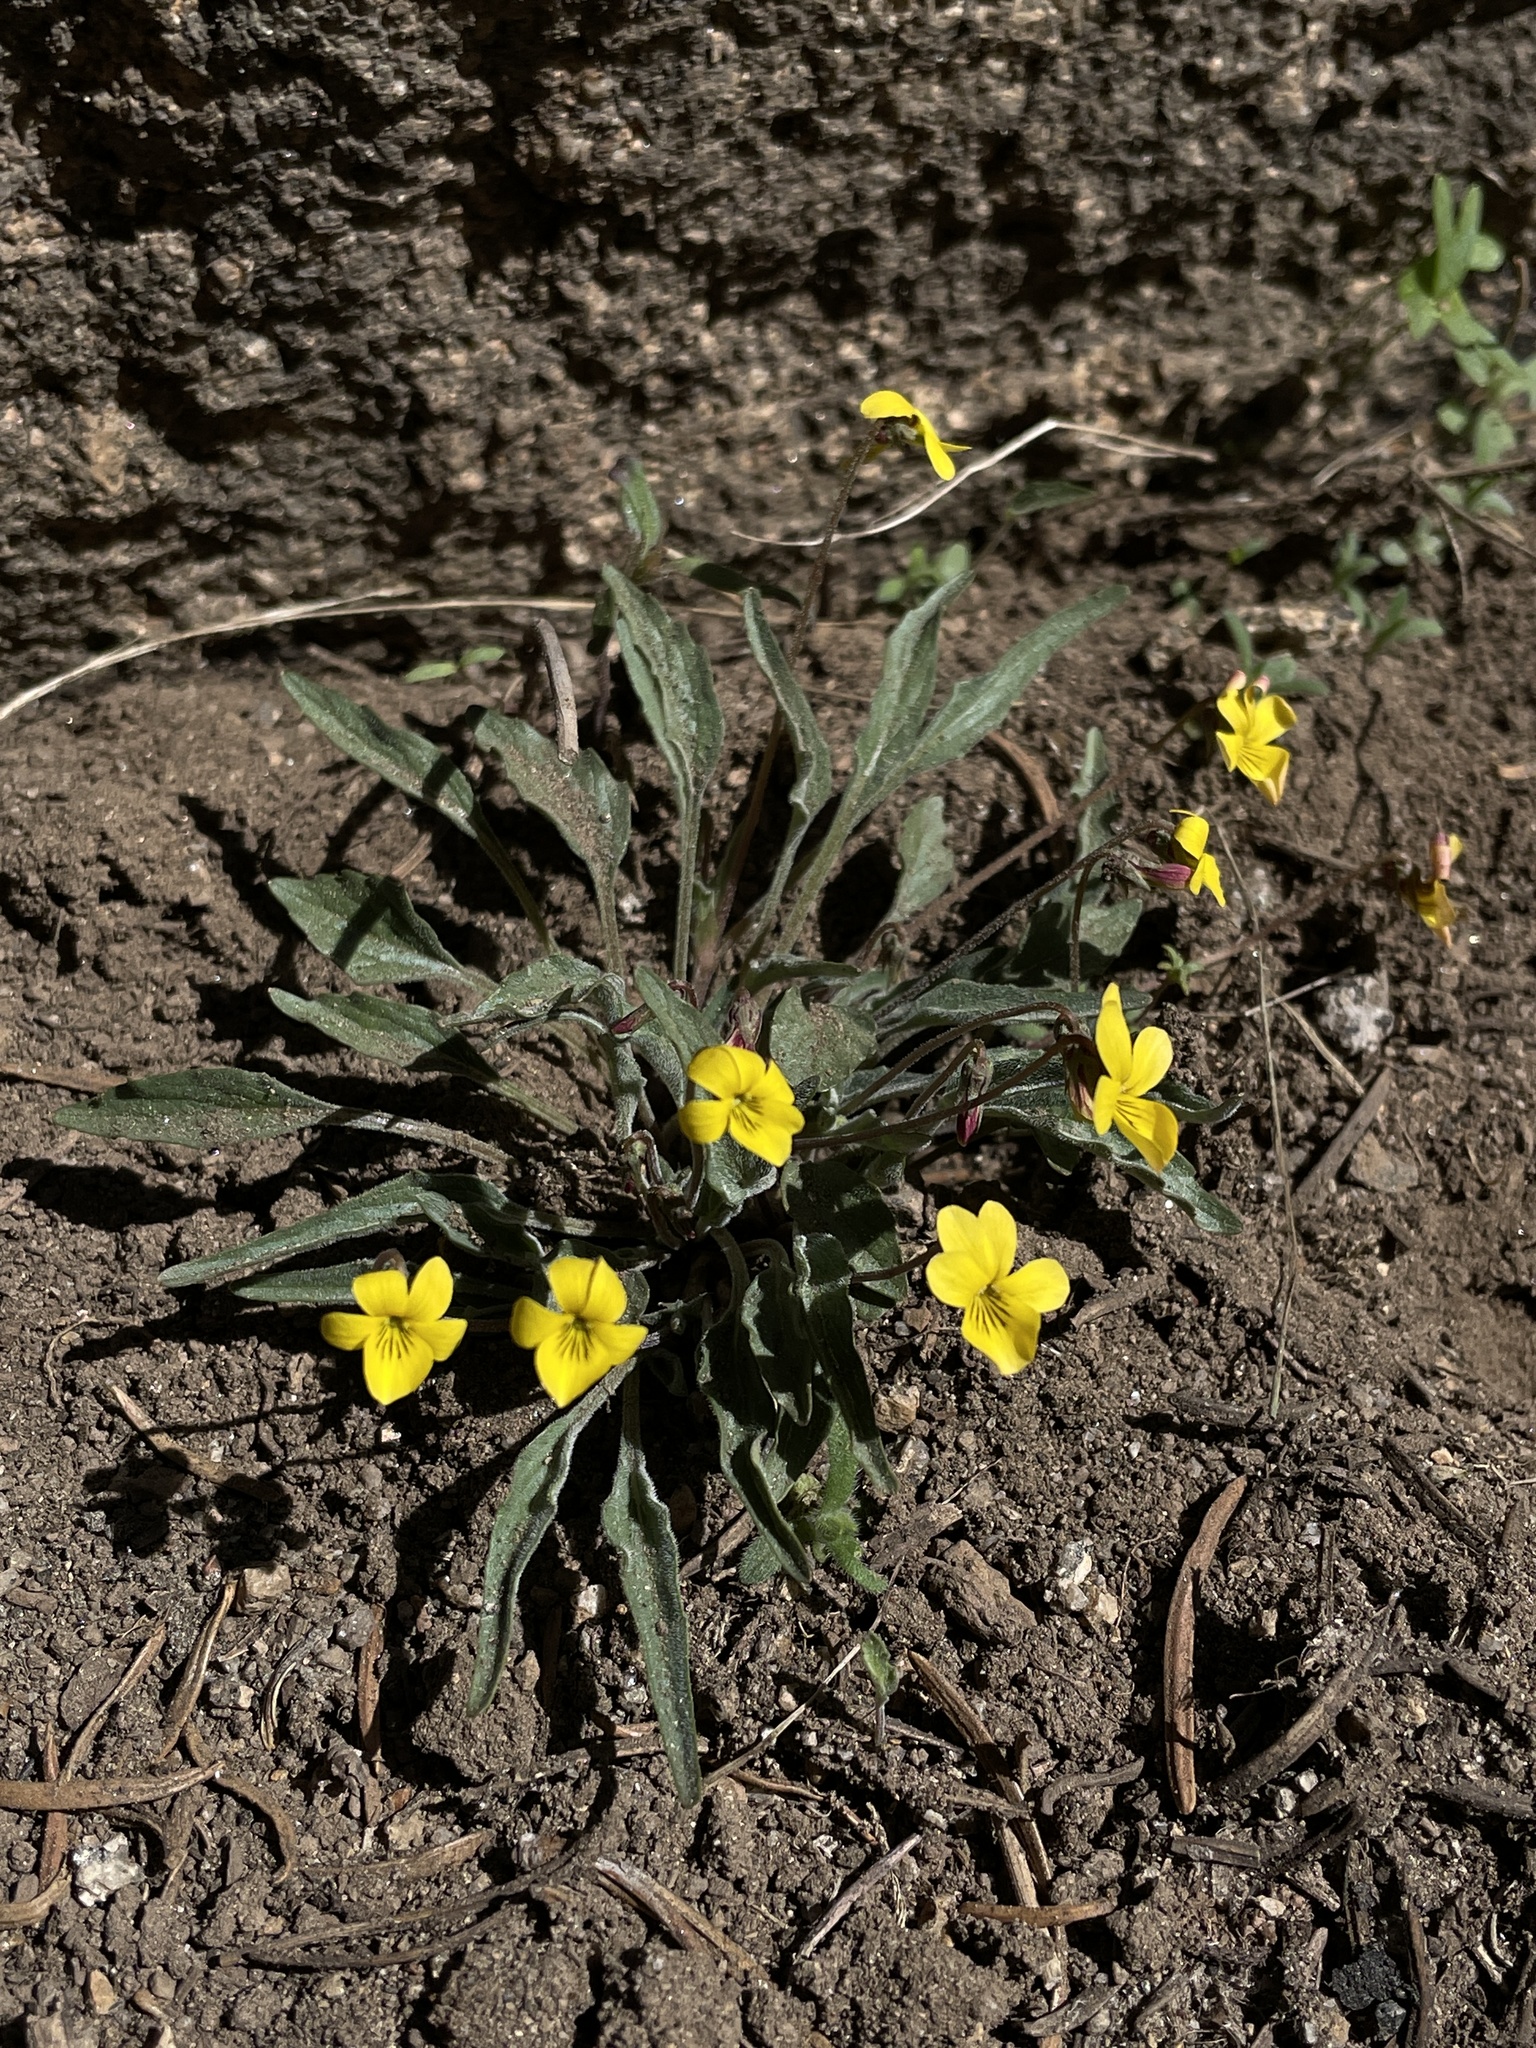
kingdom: Plantae
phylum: Tracheophyta
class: Magnoliopsida
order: Malpighiales
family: Violaceae
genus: Viola
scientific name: Viola pinetorum
